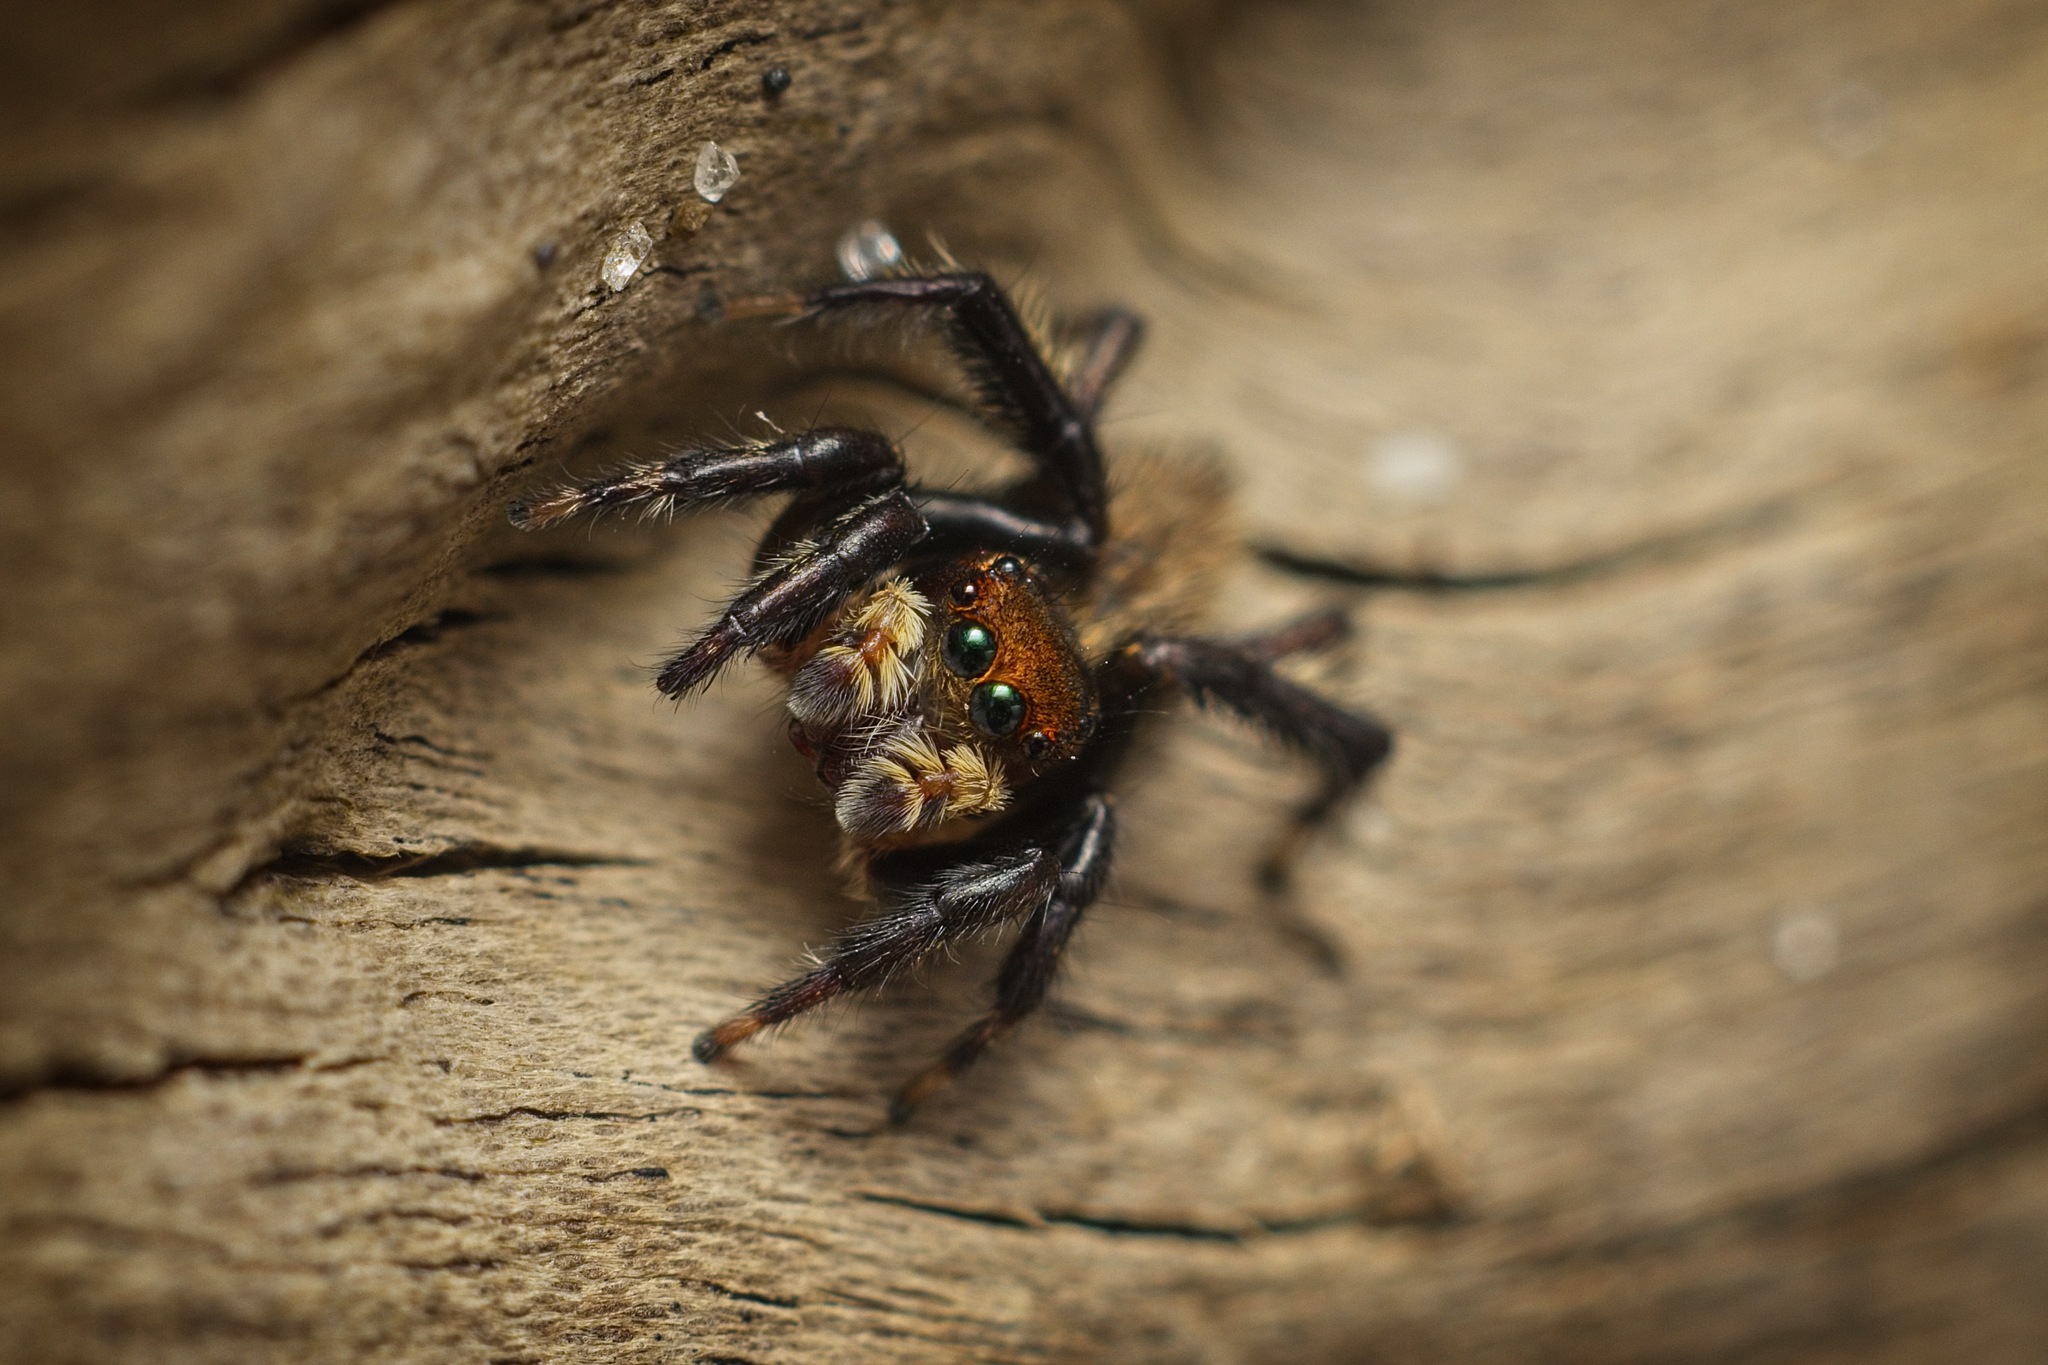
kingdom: Animalia
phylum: Arthropoda
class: Arachnida
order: Araneae
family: Salticidae
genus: Maratus
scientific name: Maratus griseus
